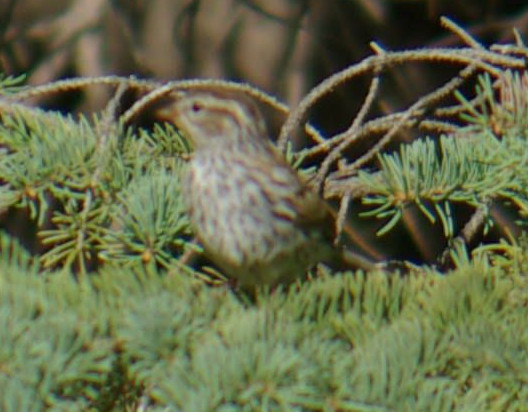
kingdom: Animalia
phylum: Chordata
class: Aves
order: Passeriformes
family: Passerellidae
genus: Spizella
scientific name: Spizella passerina
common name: Chipping sparrow
